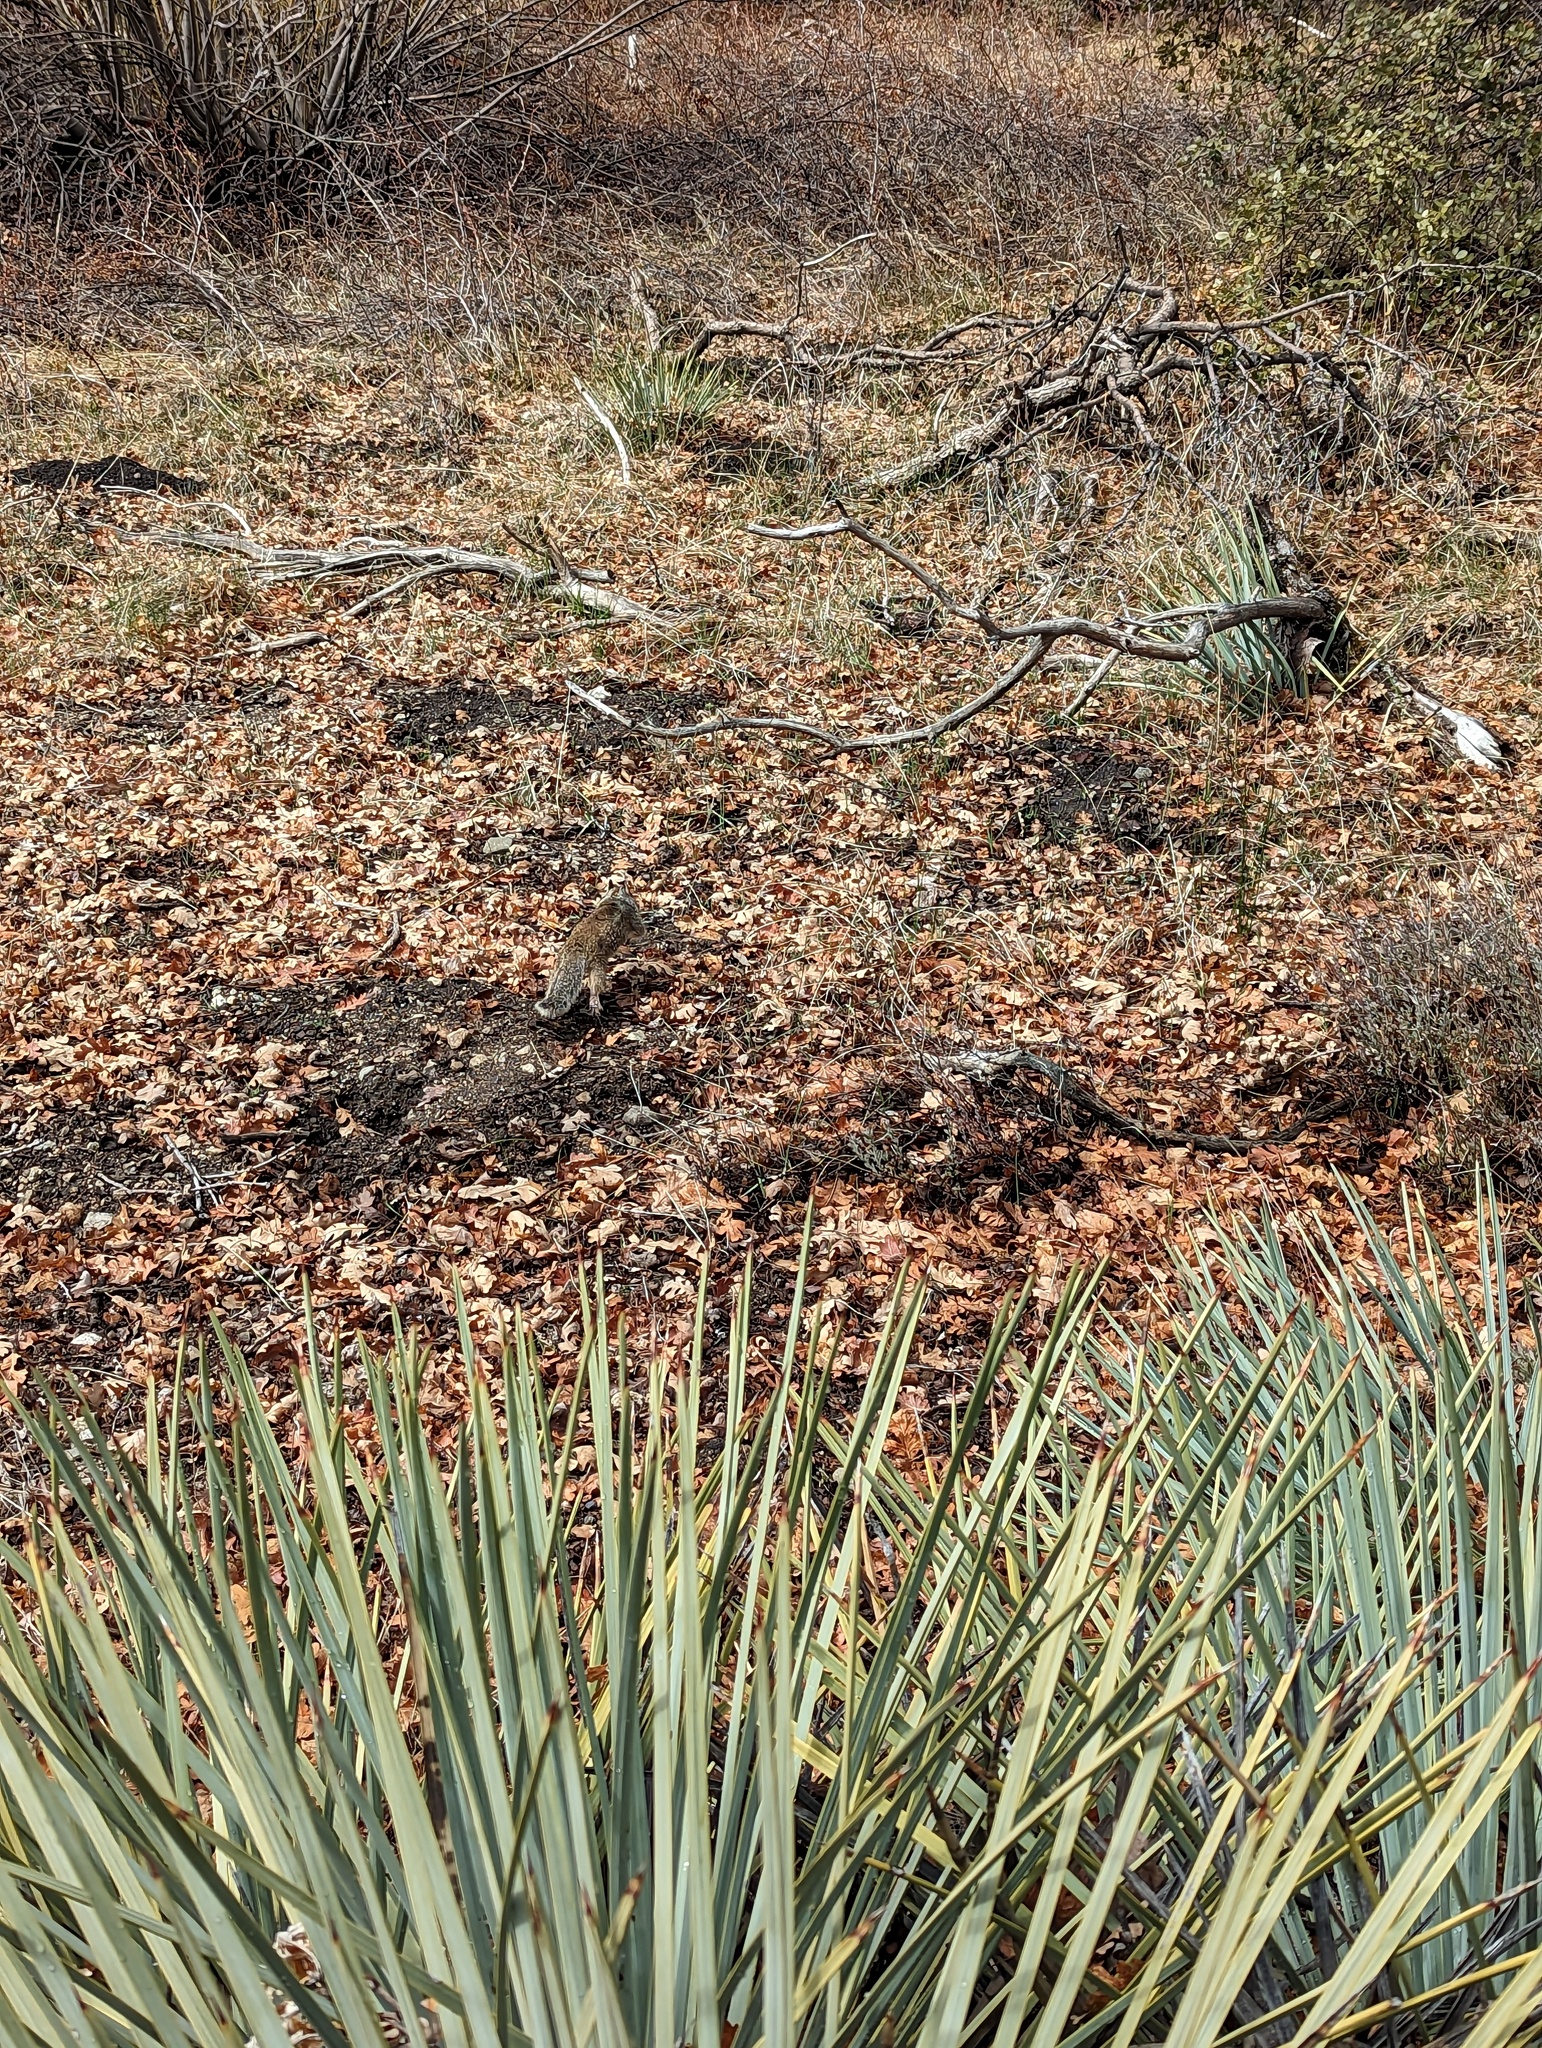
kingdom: Animalia
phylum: Chordata
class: Mammalia
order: Rodentia
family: Sciuridae
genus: Otospermophilus
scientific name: Otospermophilus beecheyi
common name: California ground squirrel
